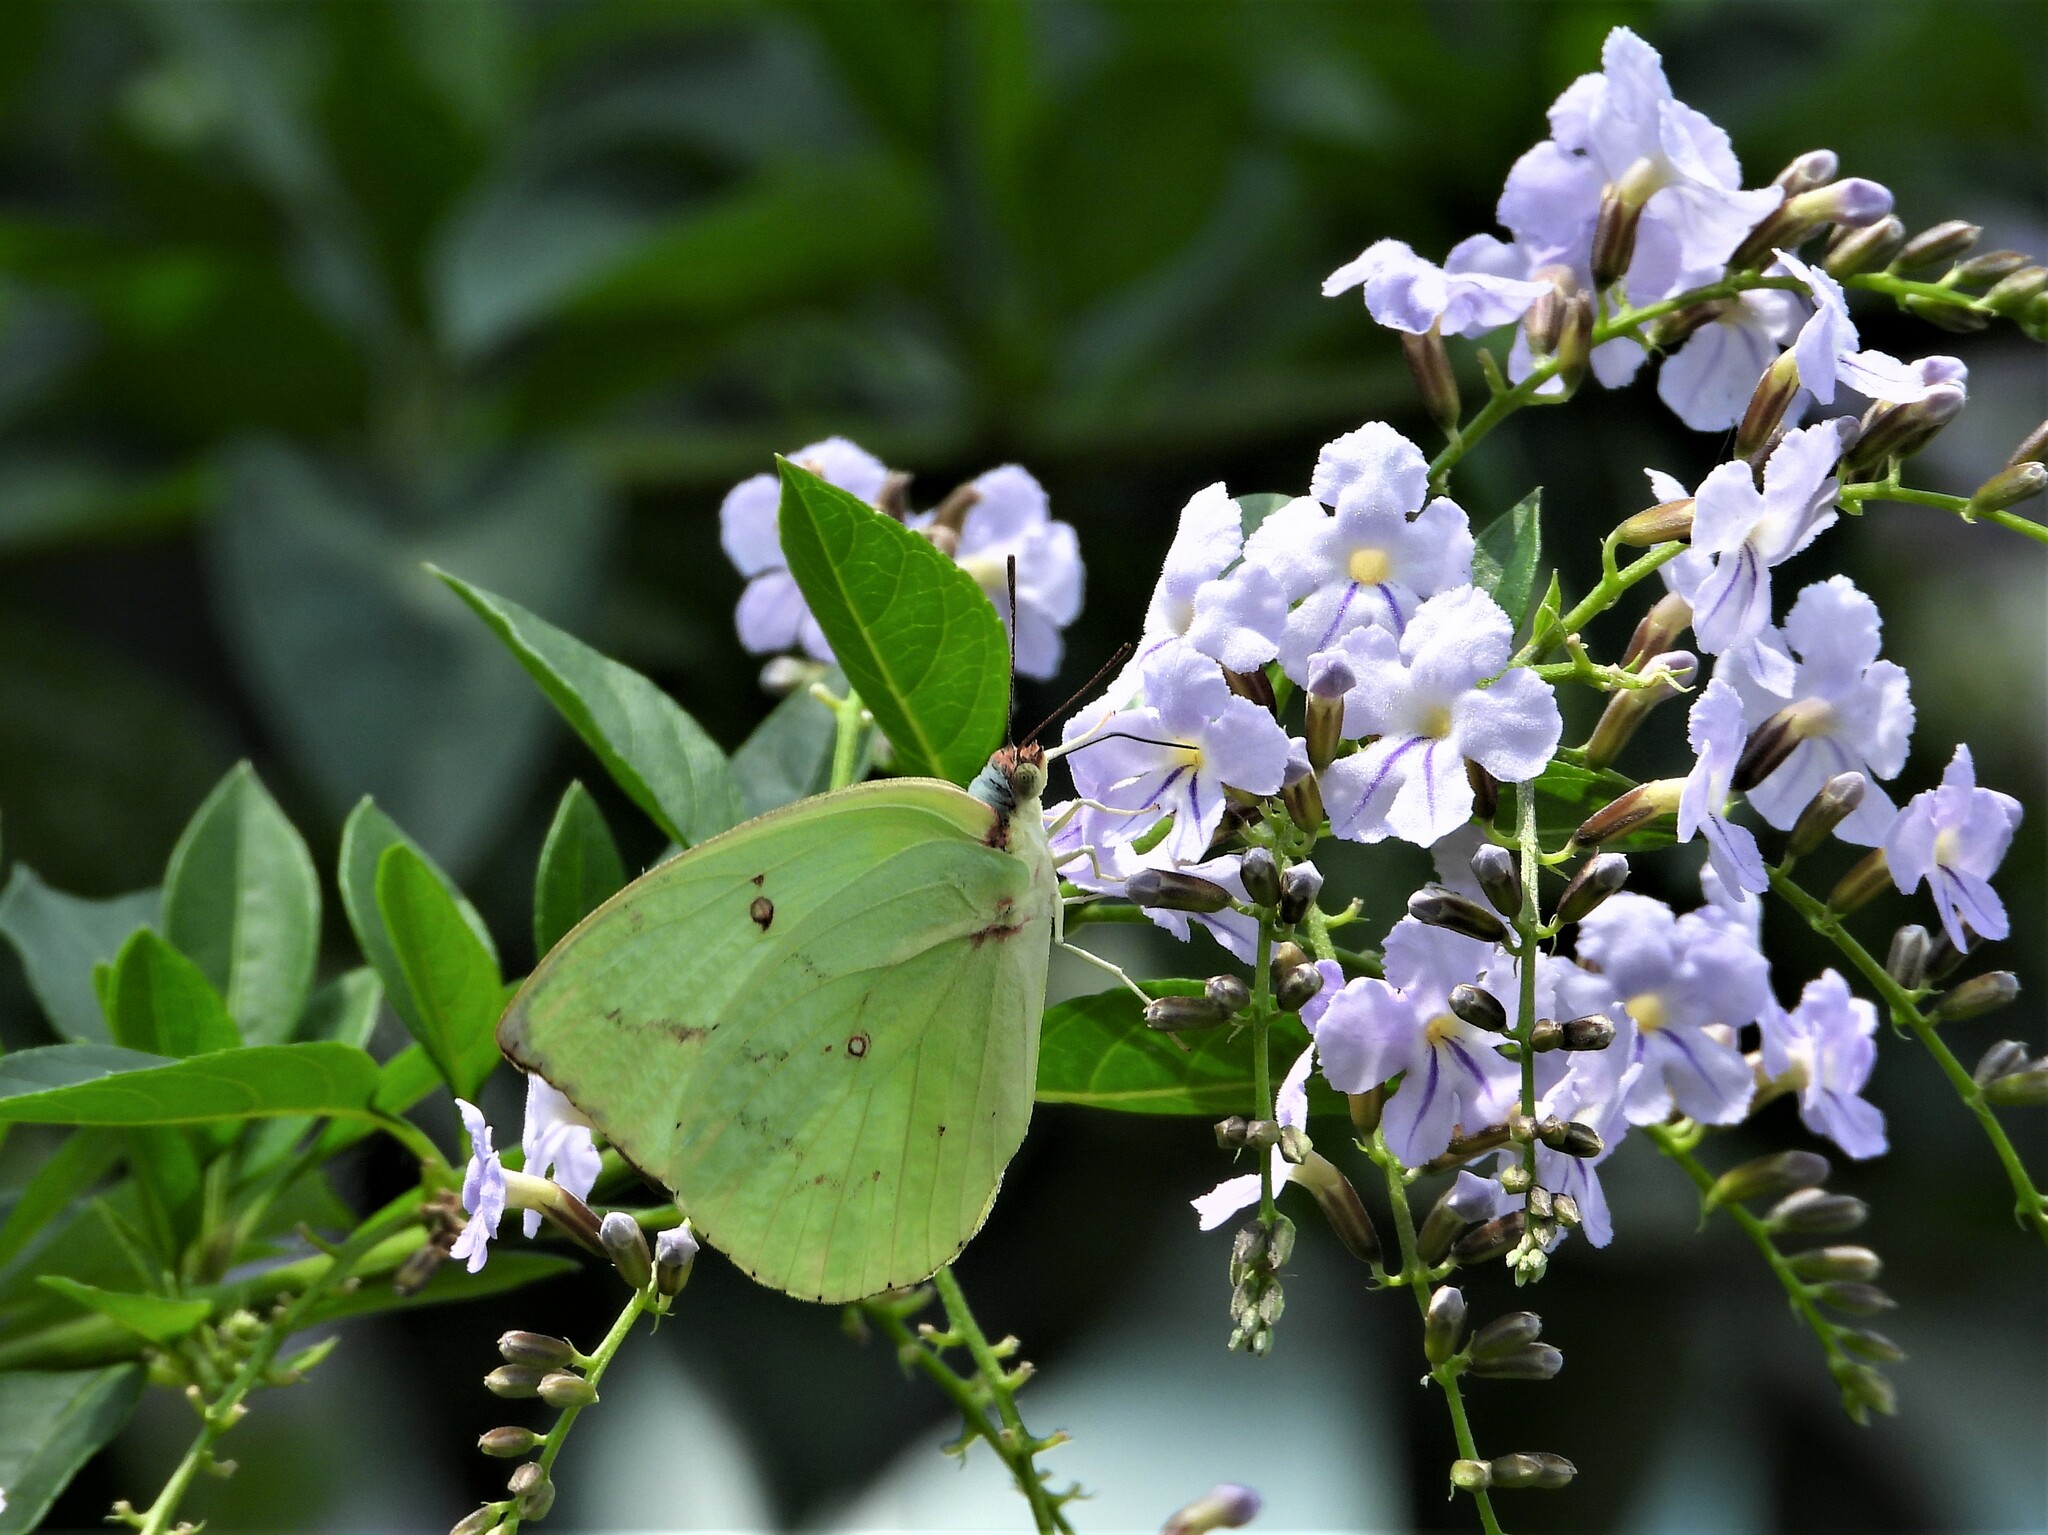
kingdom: Animalia
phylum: Arthropoda
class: Insecta
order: Lepidoptera
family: Pieridae
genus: Catopsilia
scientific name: Catopsilia pomona
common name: Common emigrant
